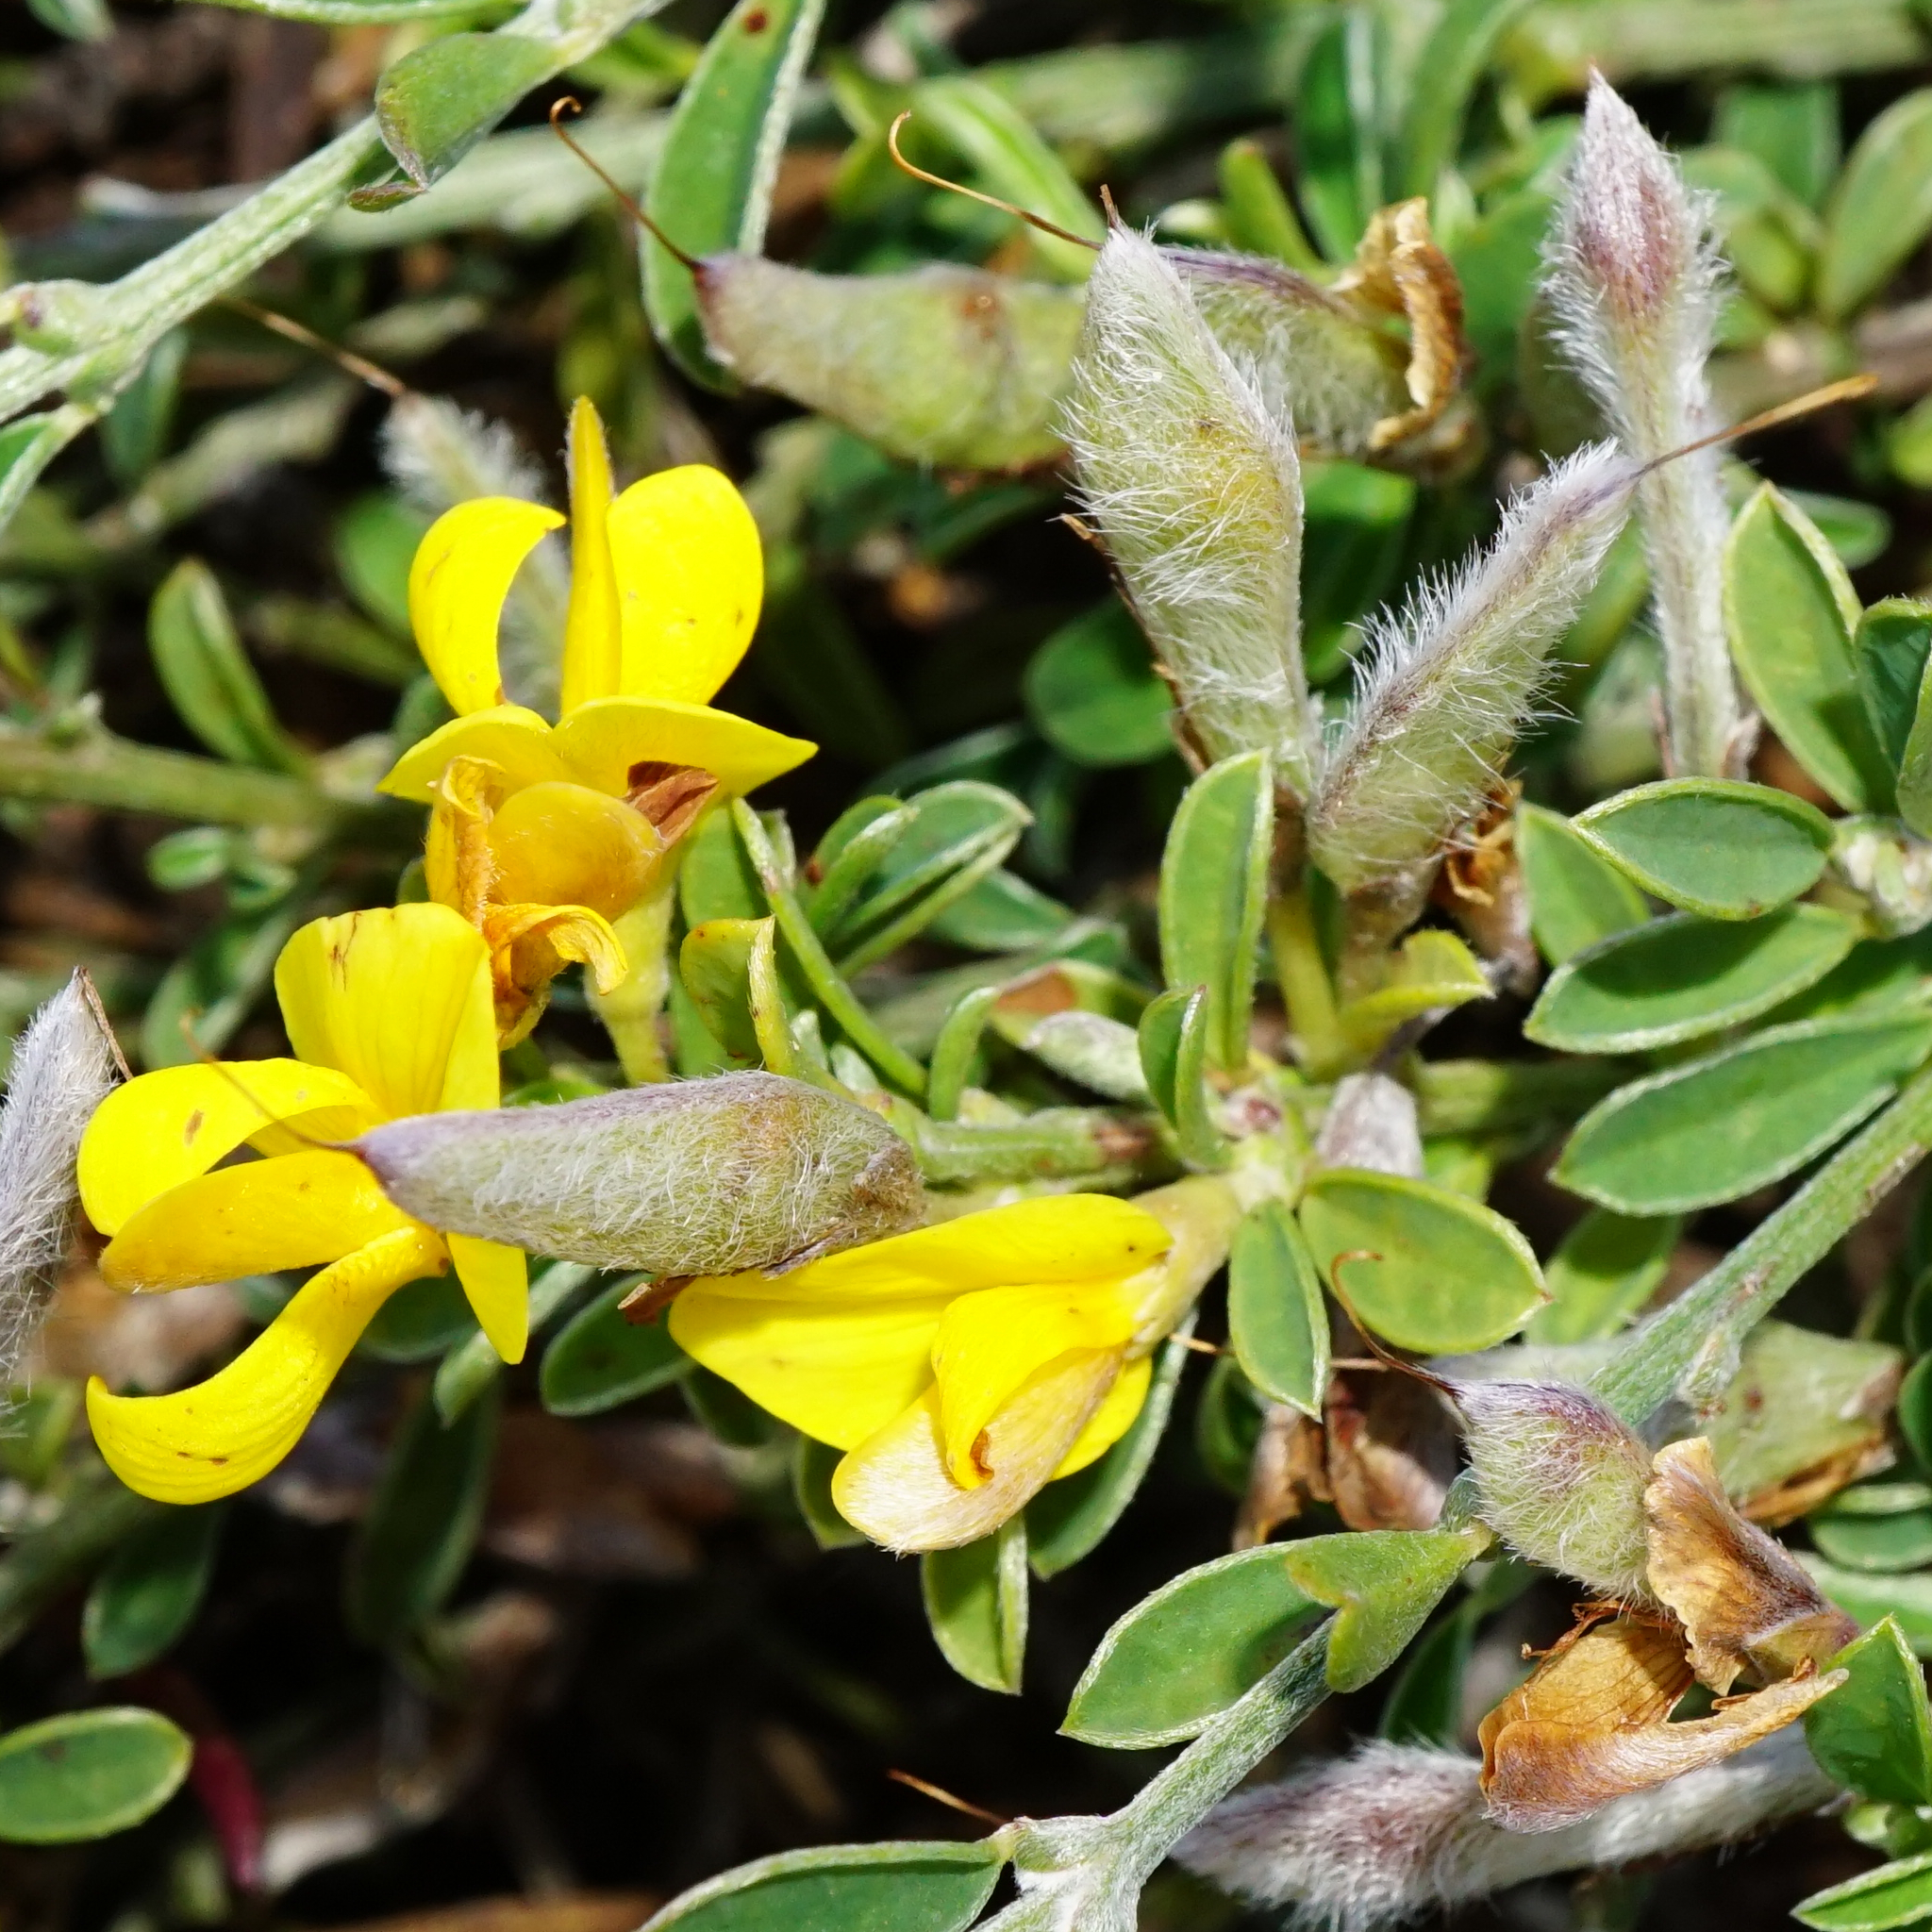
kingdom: Plantae
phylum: Tracheophyta
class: Magnoliopsida
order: Fabales
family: Fabaceae
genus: Genista
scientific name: Genista pilosa
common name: Hairy greenweed
